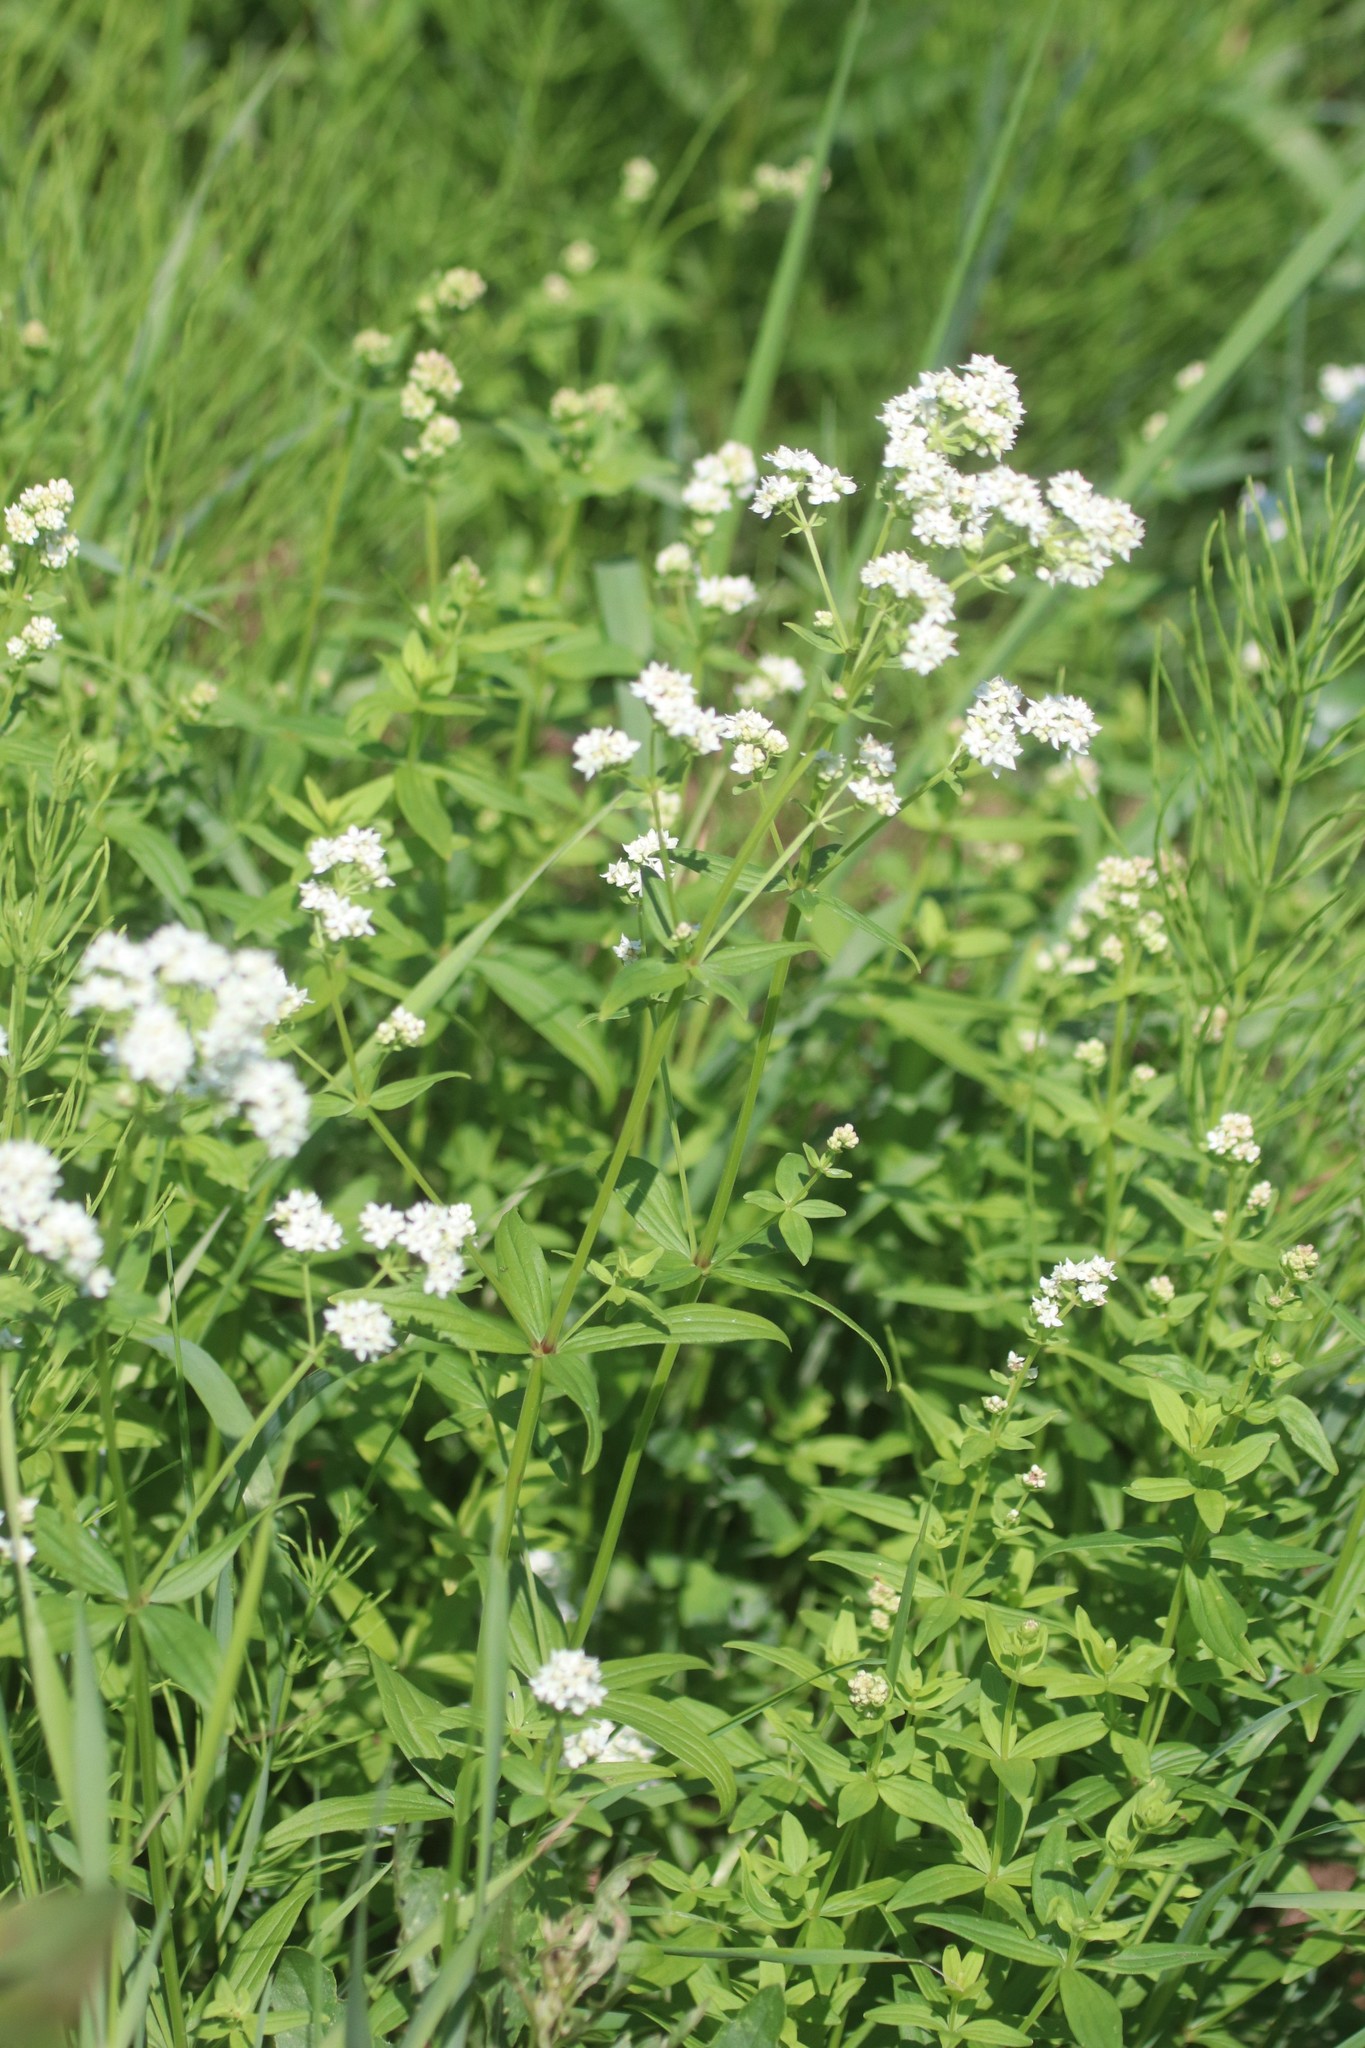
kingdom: Plantae
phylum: Tracheophyta
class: Magnoliopsida
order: Gentianales
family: Rubiaceae
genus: Galium
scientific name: Galium boreale
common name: Northern bedstraw
